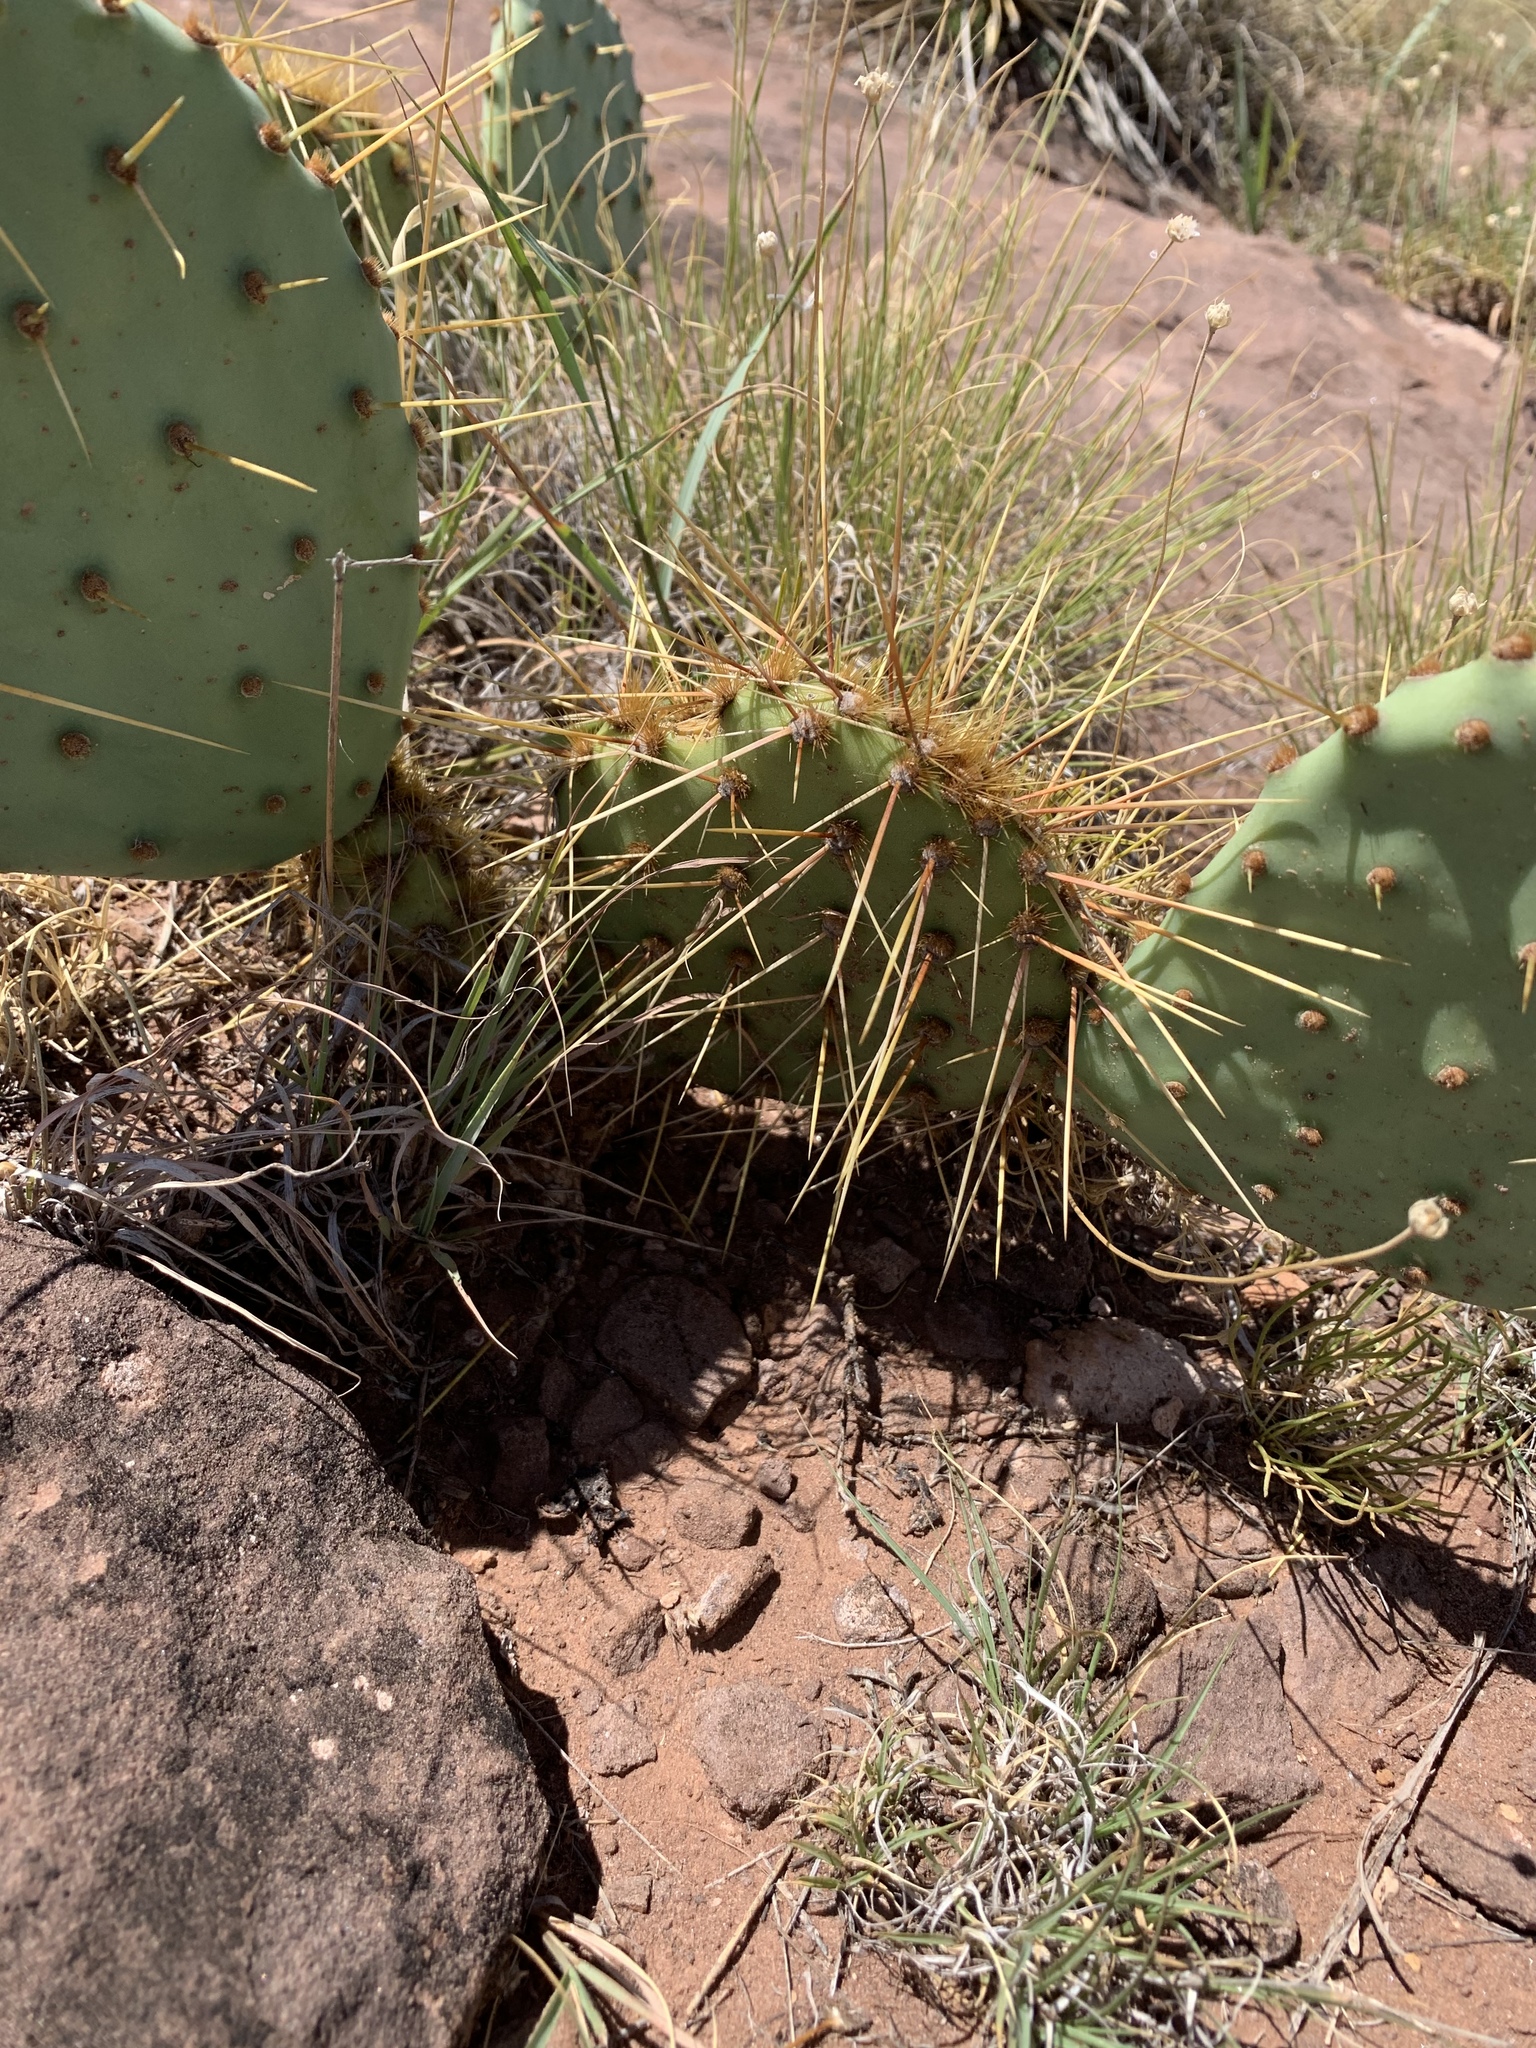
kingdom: Plantae
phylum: Tracheophyta
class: Magnoliopsida
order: Caryophyllales
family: Cactaceae
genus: Opuntia
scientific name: Opuntia phaeacantha
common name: New mexico prickly-pear
